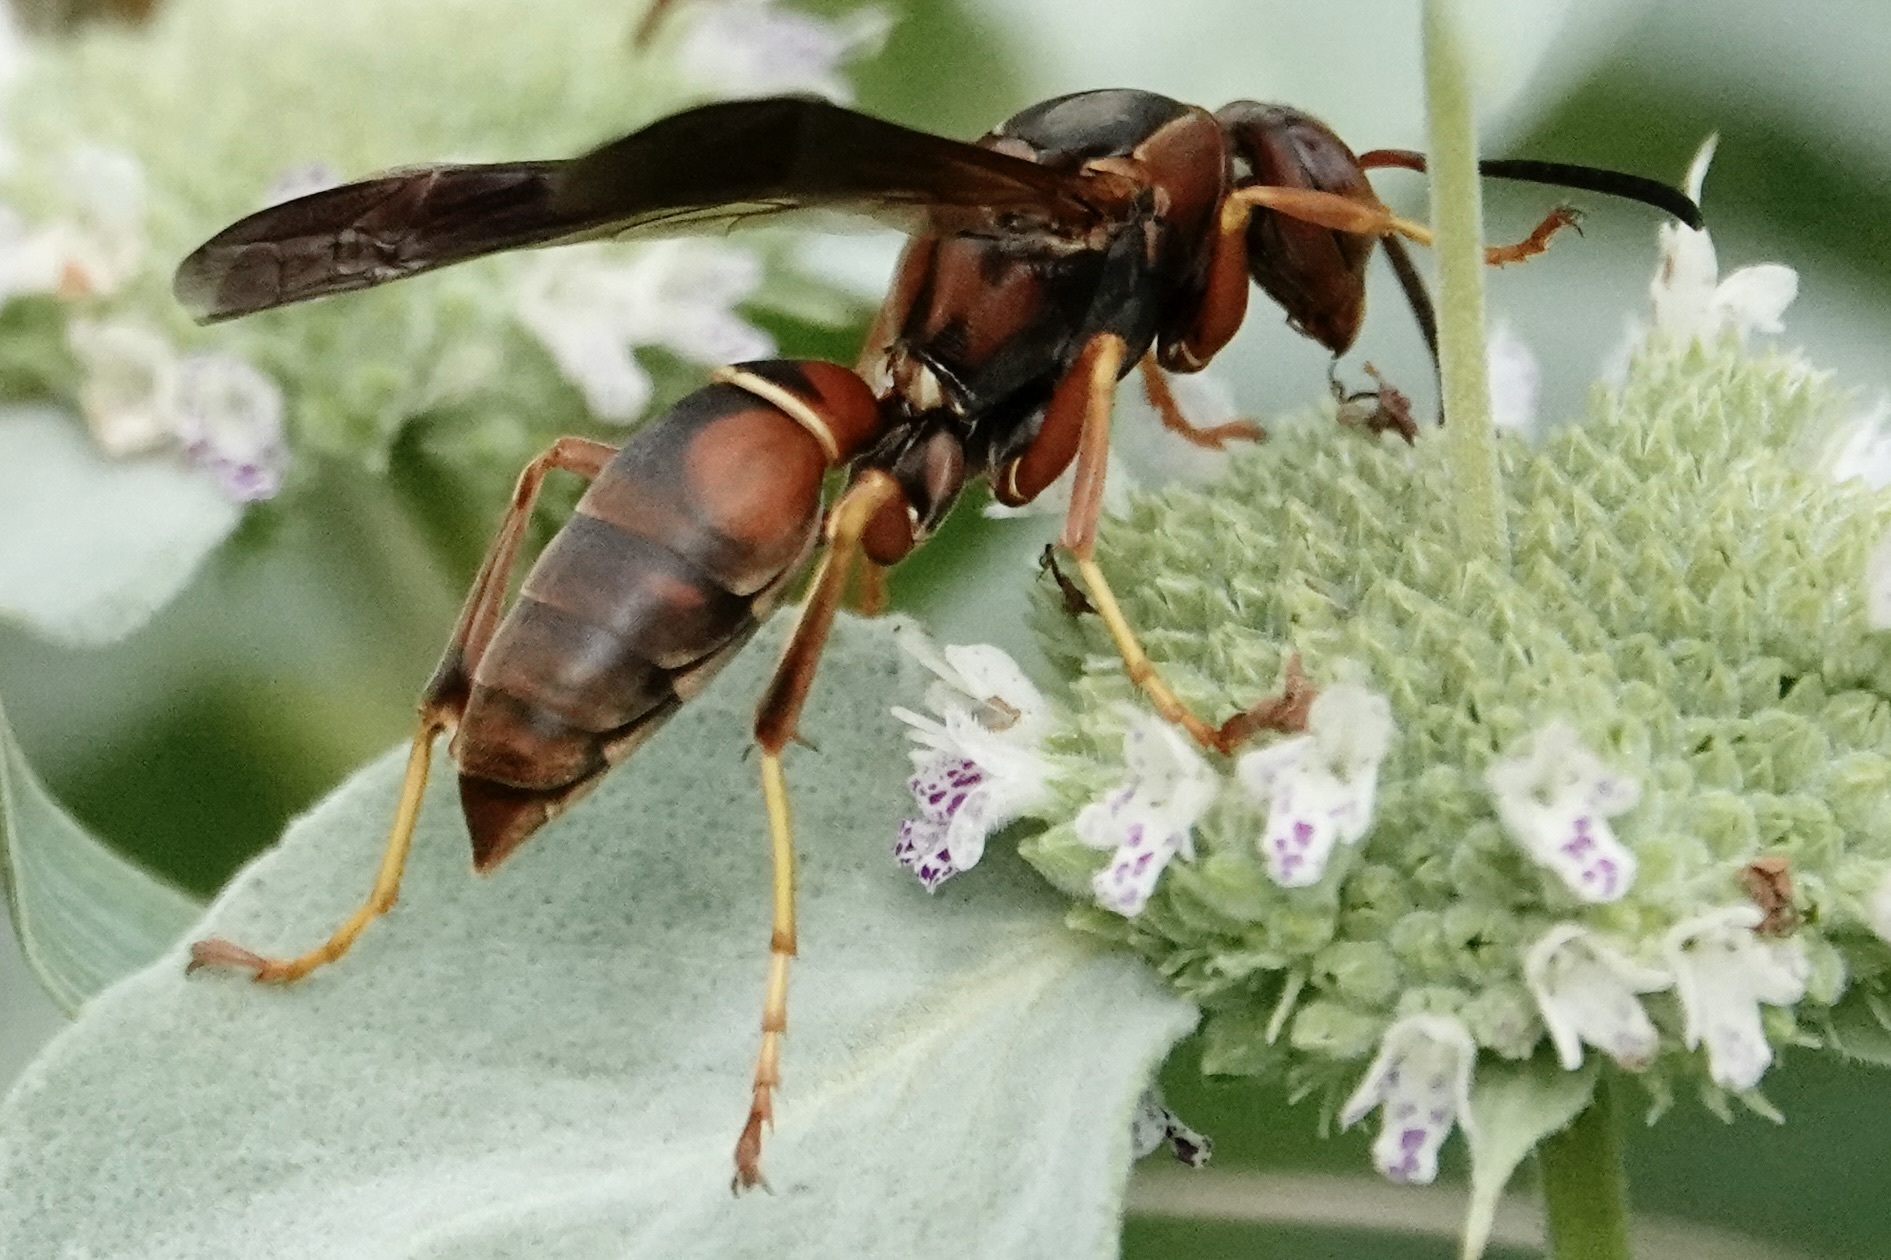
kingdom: Animalia
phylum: Arthropoda
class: Insecta
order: Hymenoptera
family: Vespidae
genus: Fuscopolistes
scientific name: Fuscopolistes
